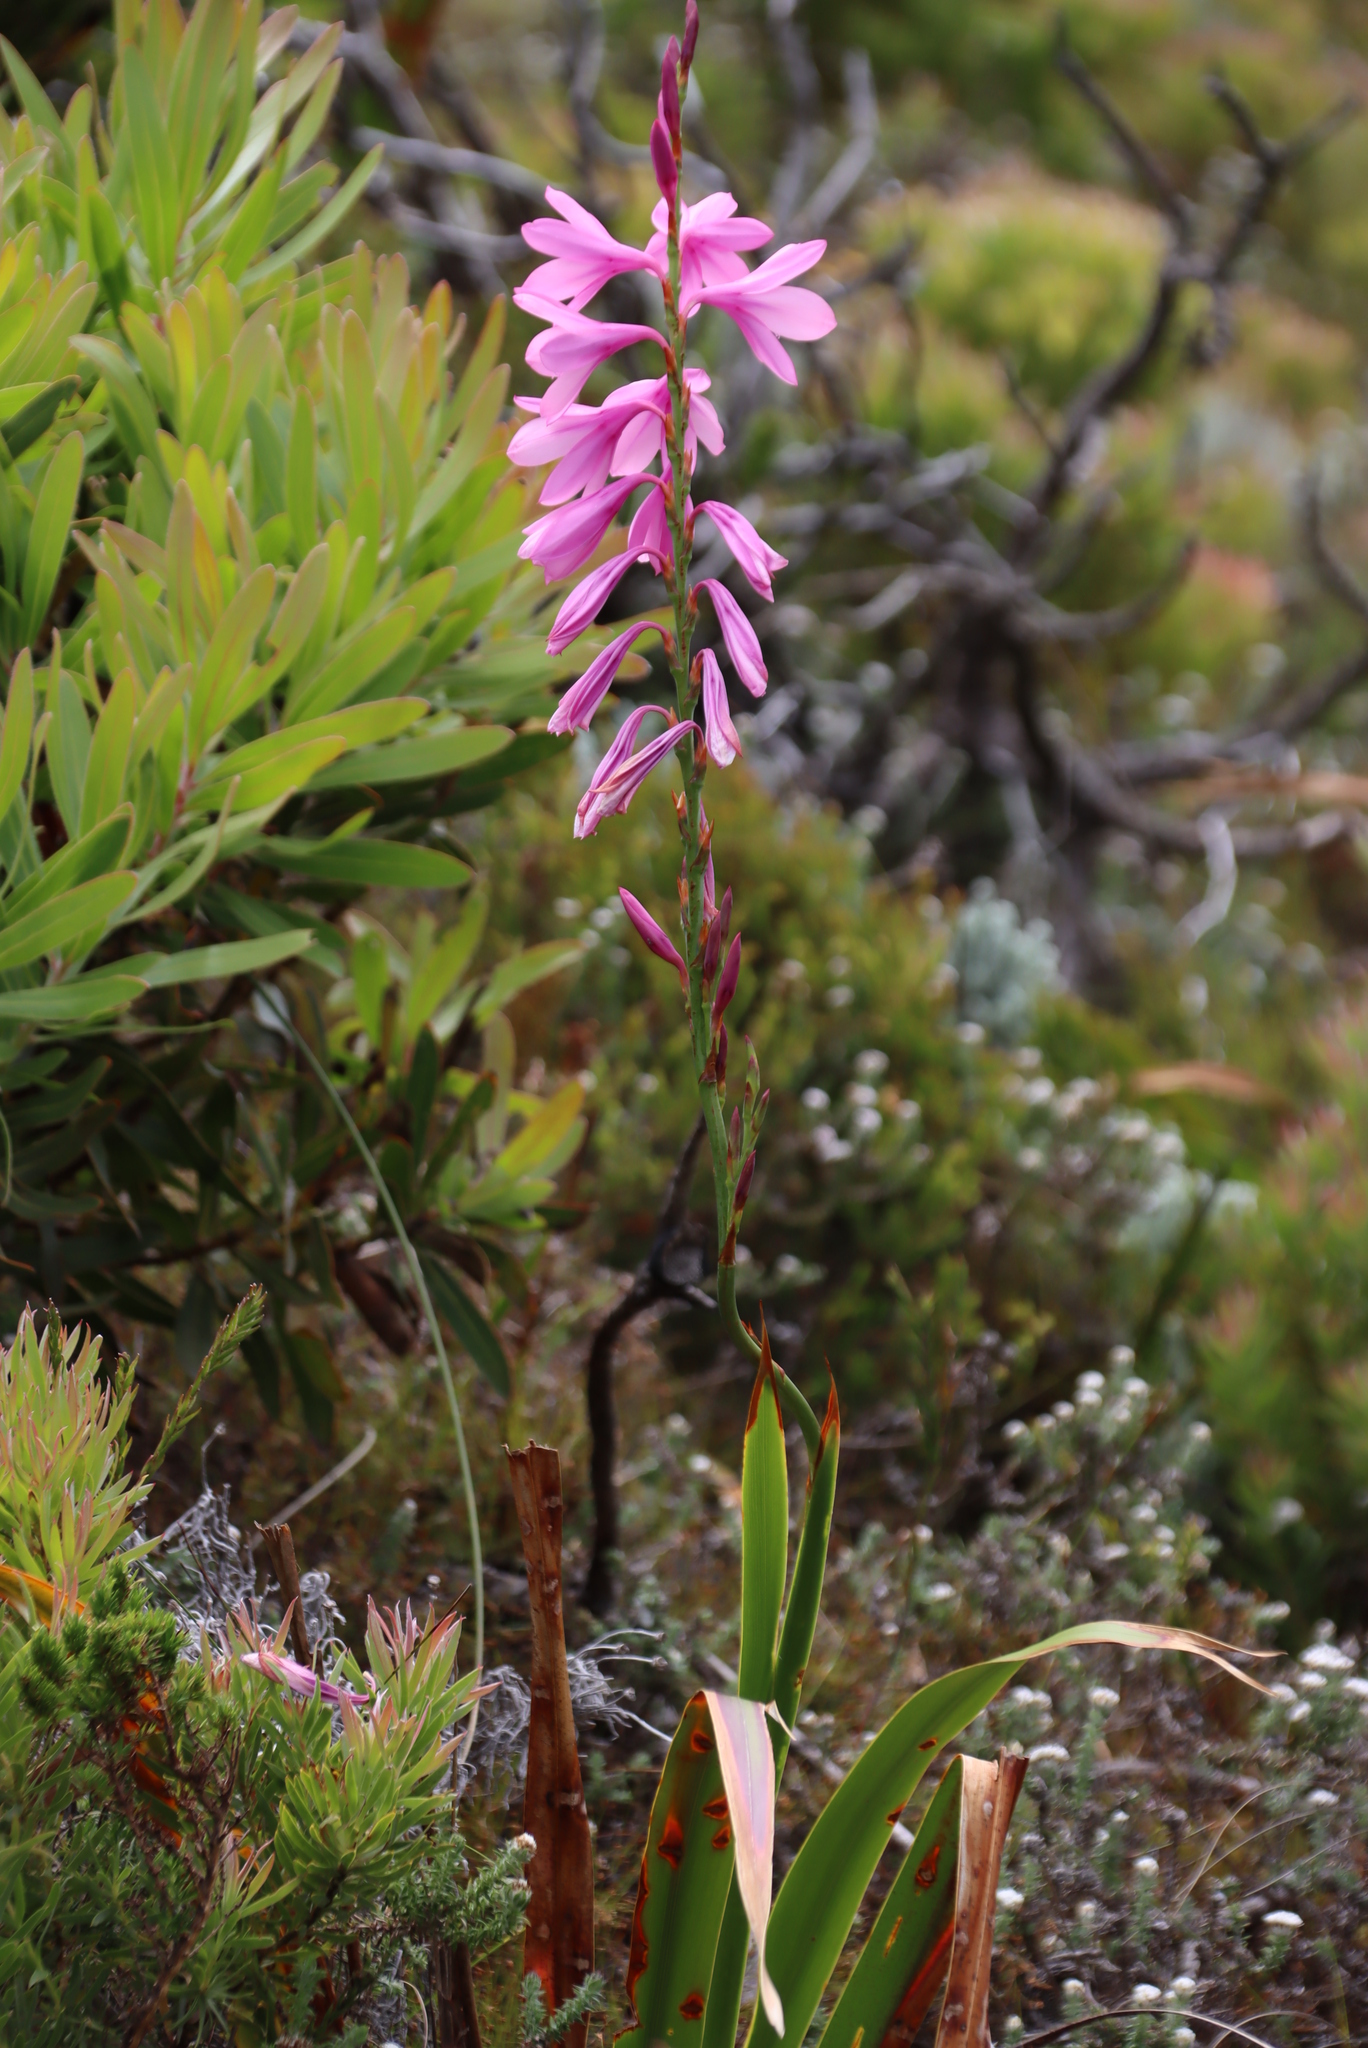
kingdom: Plantae
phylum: Tracheophyta
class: Liliopsida
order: Asparagales
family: Iridaceae
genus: Watsonia
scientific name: Watsonia borbonica
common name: Bugle-lily
